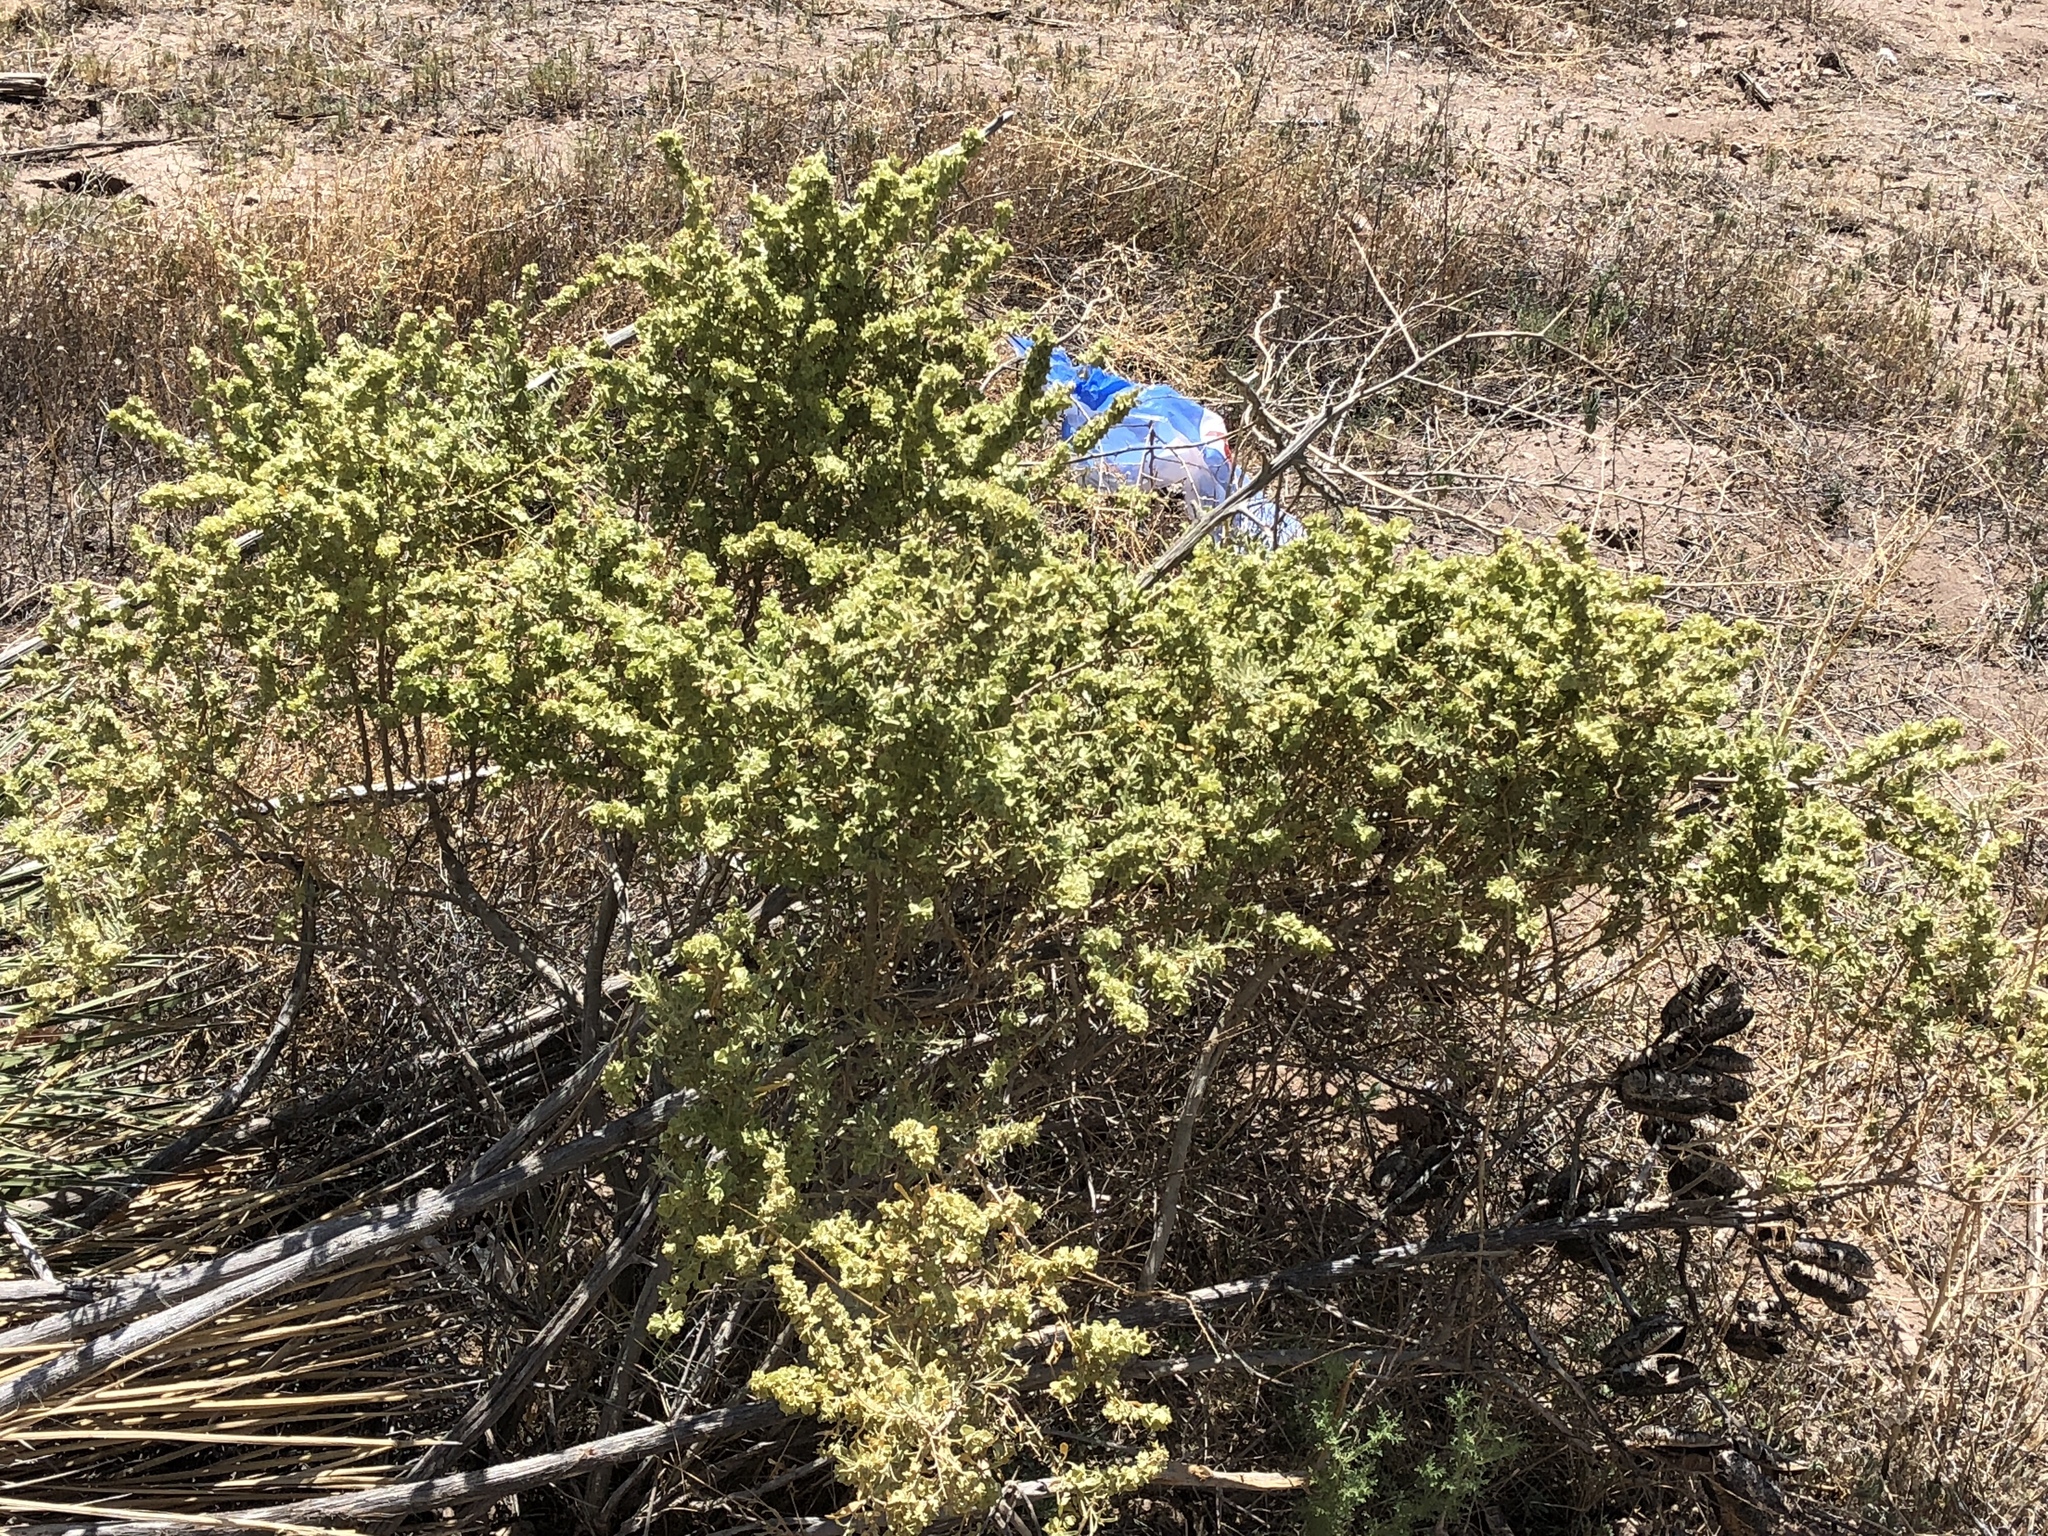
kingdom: Plantae
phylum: Tracheophyta
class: Magnoliopsida
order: Caryophyllales
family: Amaranthaceae
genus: Atriplex
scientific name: Atriplex canescens
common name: Four-wing saltbush
